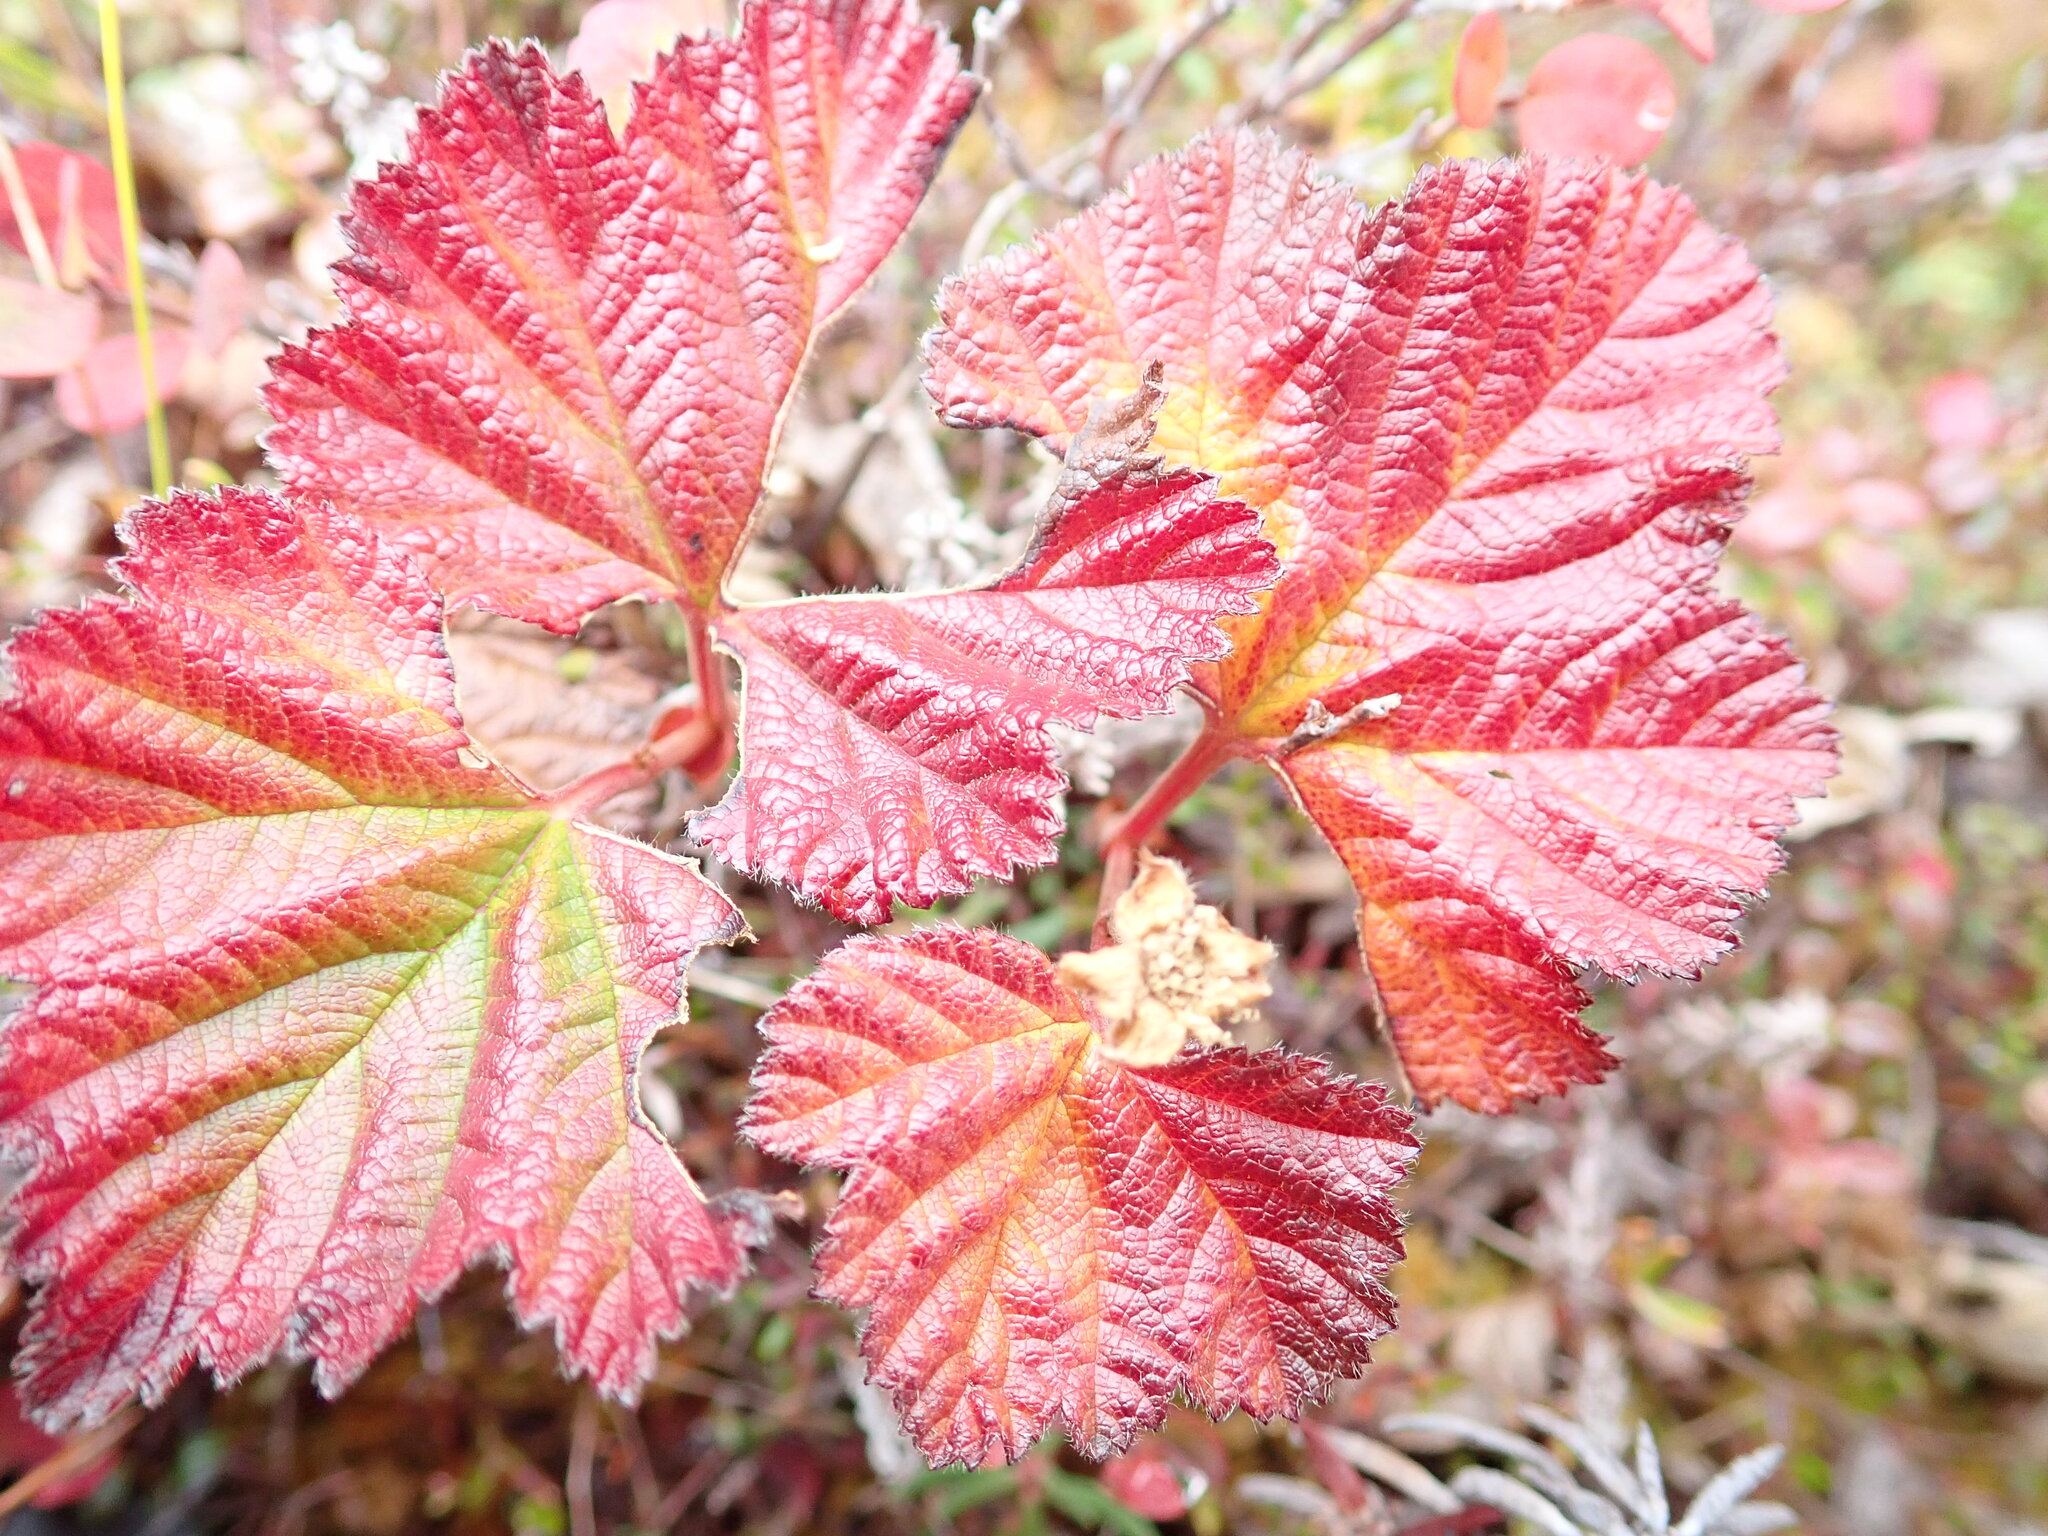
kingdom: Plantae
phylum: Tracheophyta
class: Magnoliopsida
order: Rosales
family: Rosaceae
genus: Rubus
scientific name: Rubus chamaemorus
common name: Cloudberry
